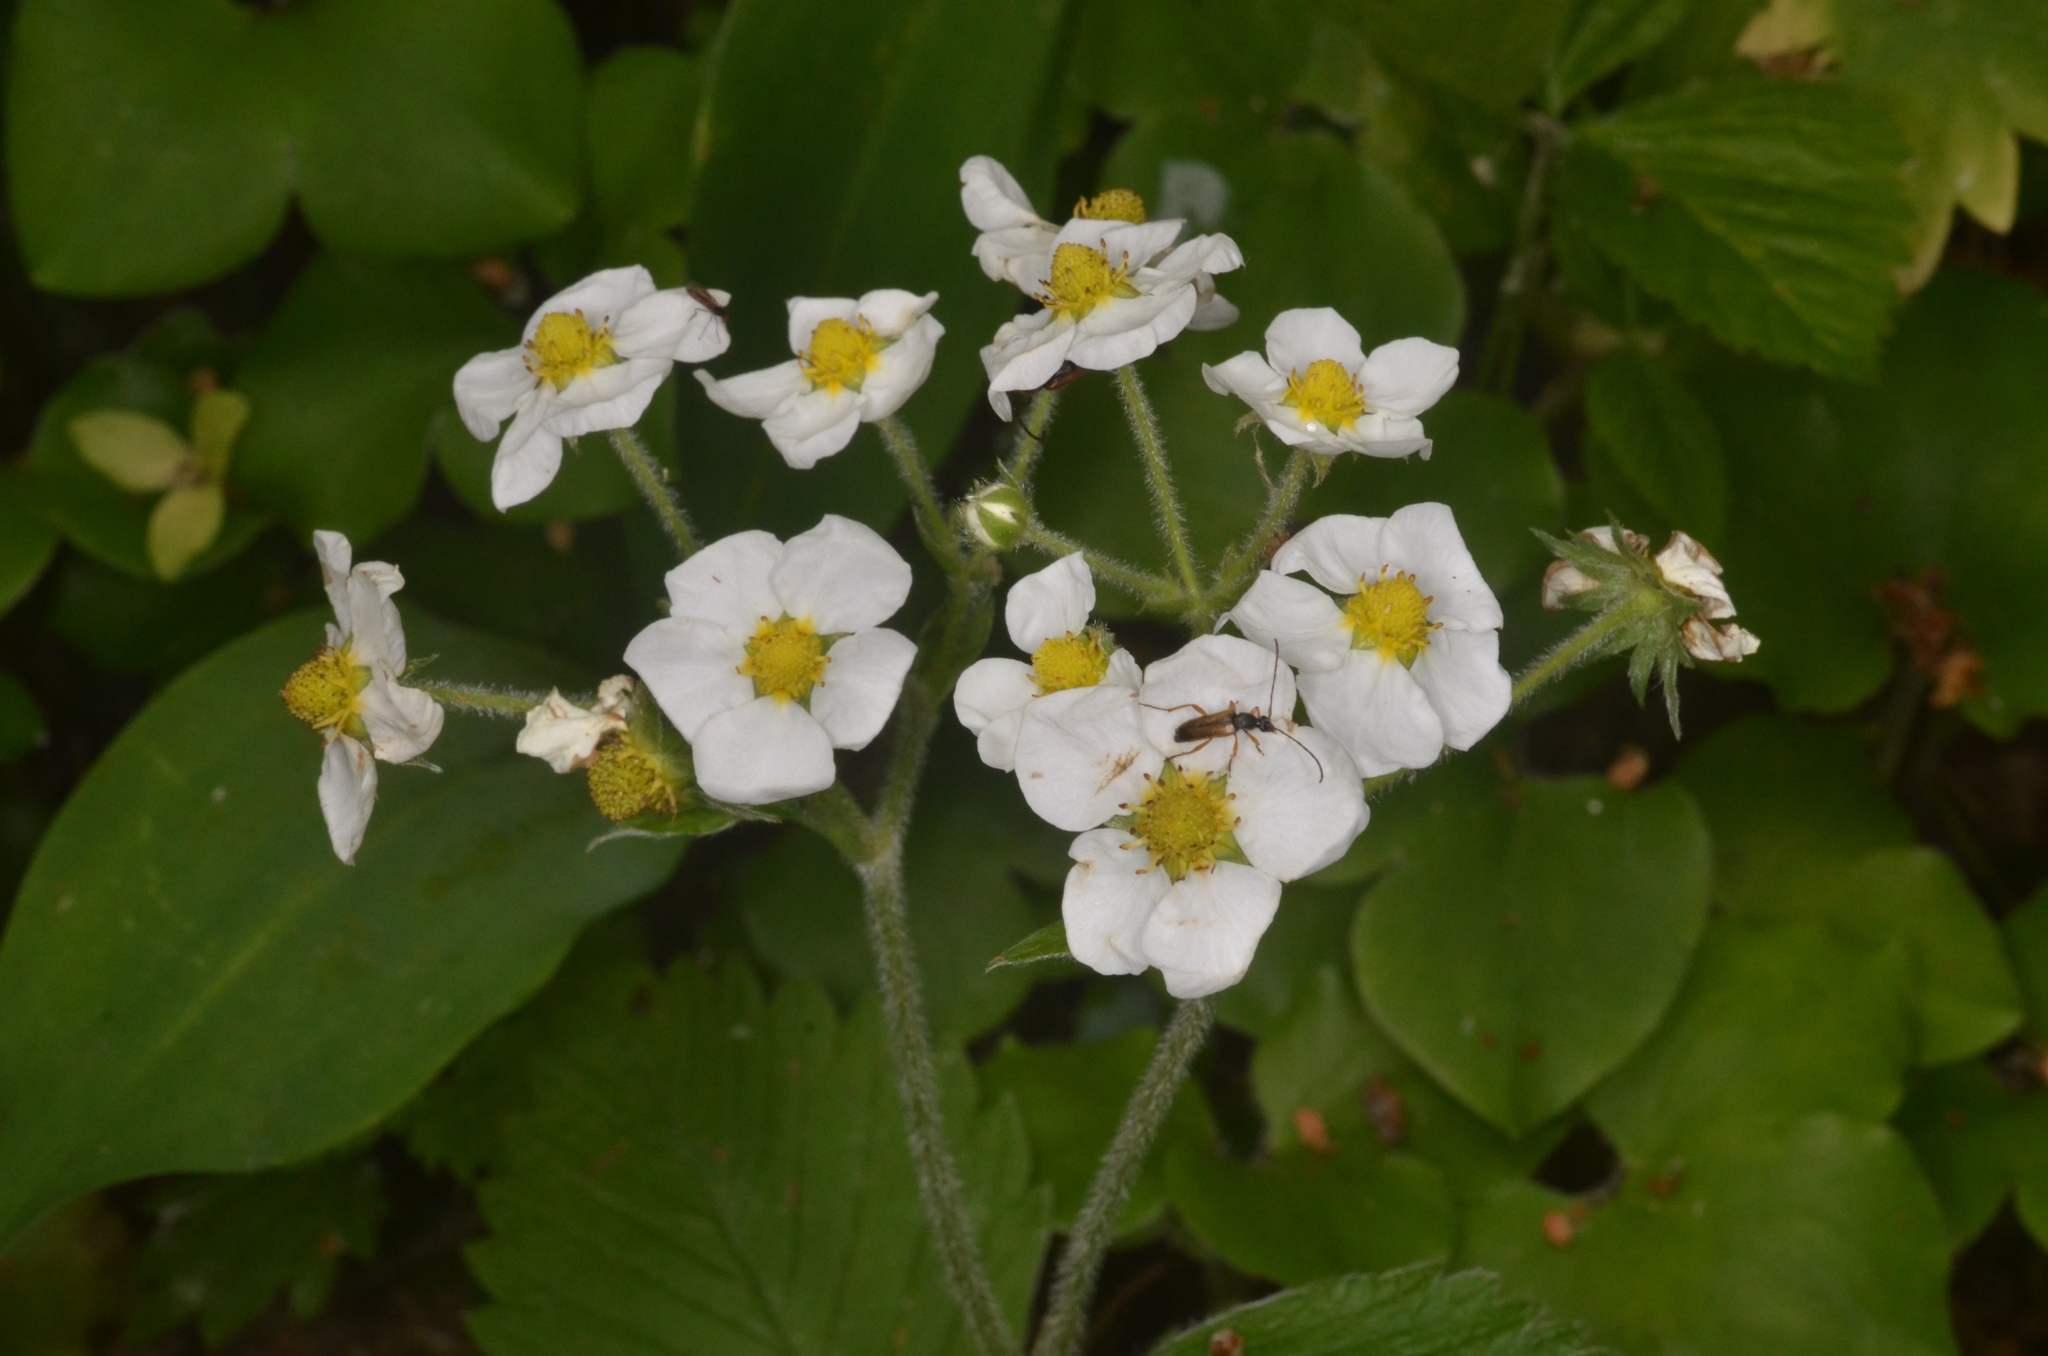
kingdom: Plantae
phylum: Tracheophyta
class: Magnoliopsida
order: Rosales
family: Rosaceae
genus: Fragaria
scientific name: Fragaria moschata
